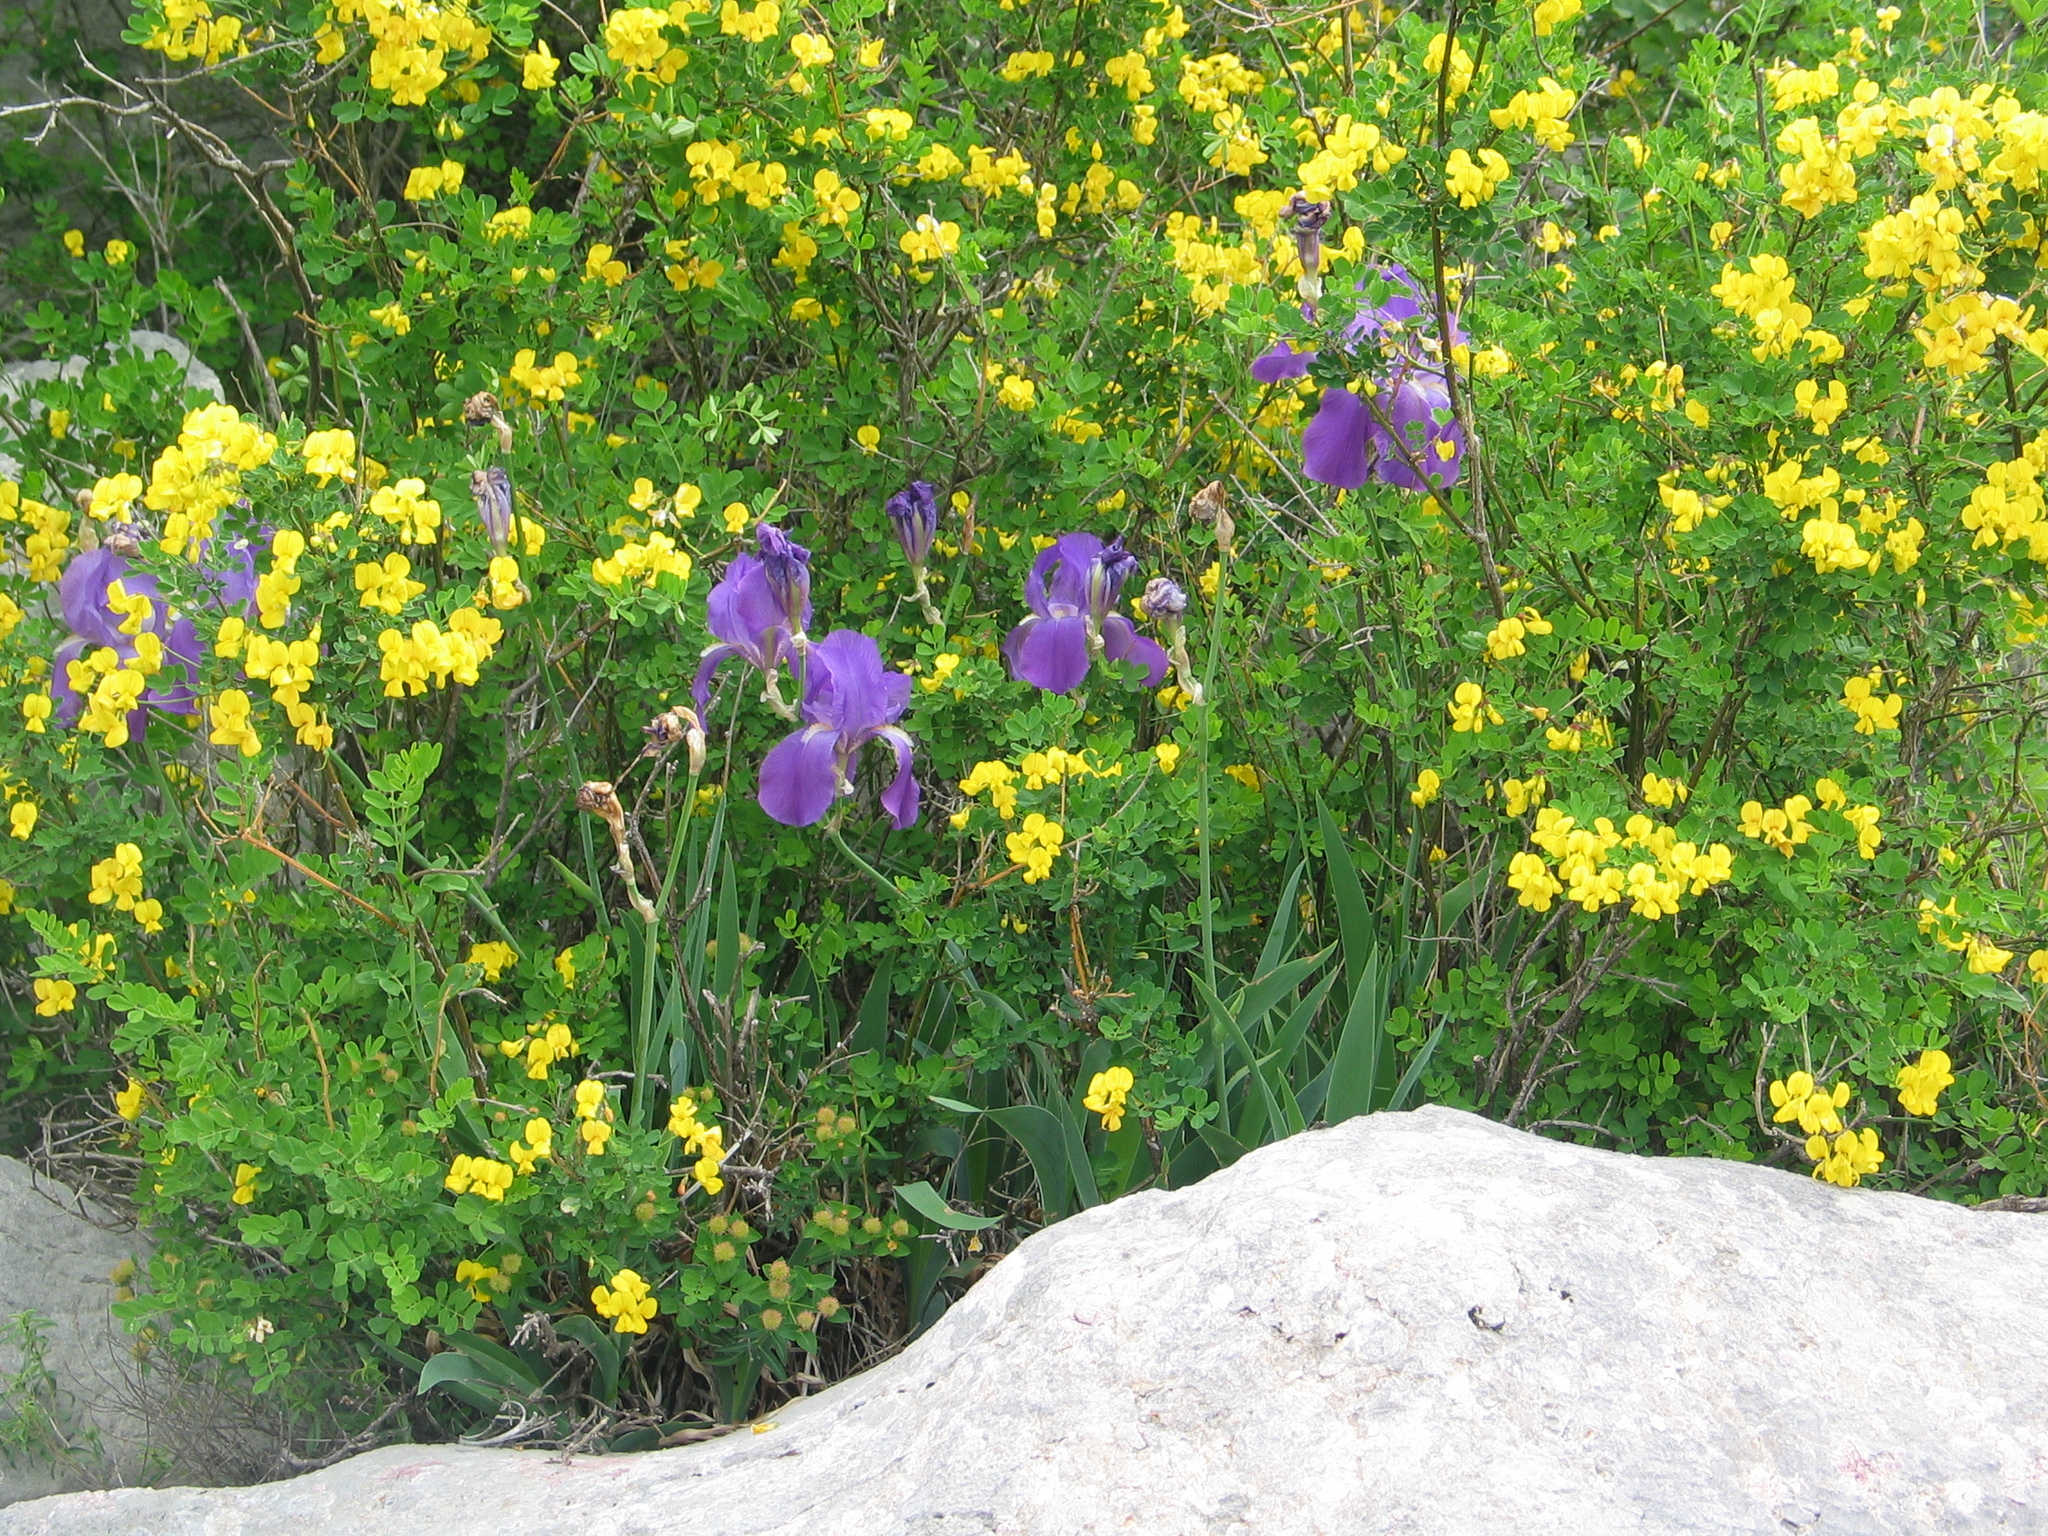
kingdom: Plantae
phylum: Tracheophyta
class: Liliopsida
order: Asparagales
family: Iridaceae
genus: Iris
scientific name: Iris pallida
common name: Sweet iris
